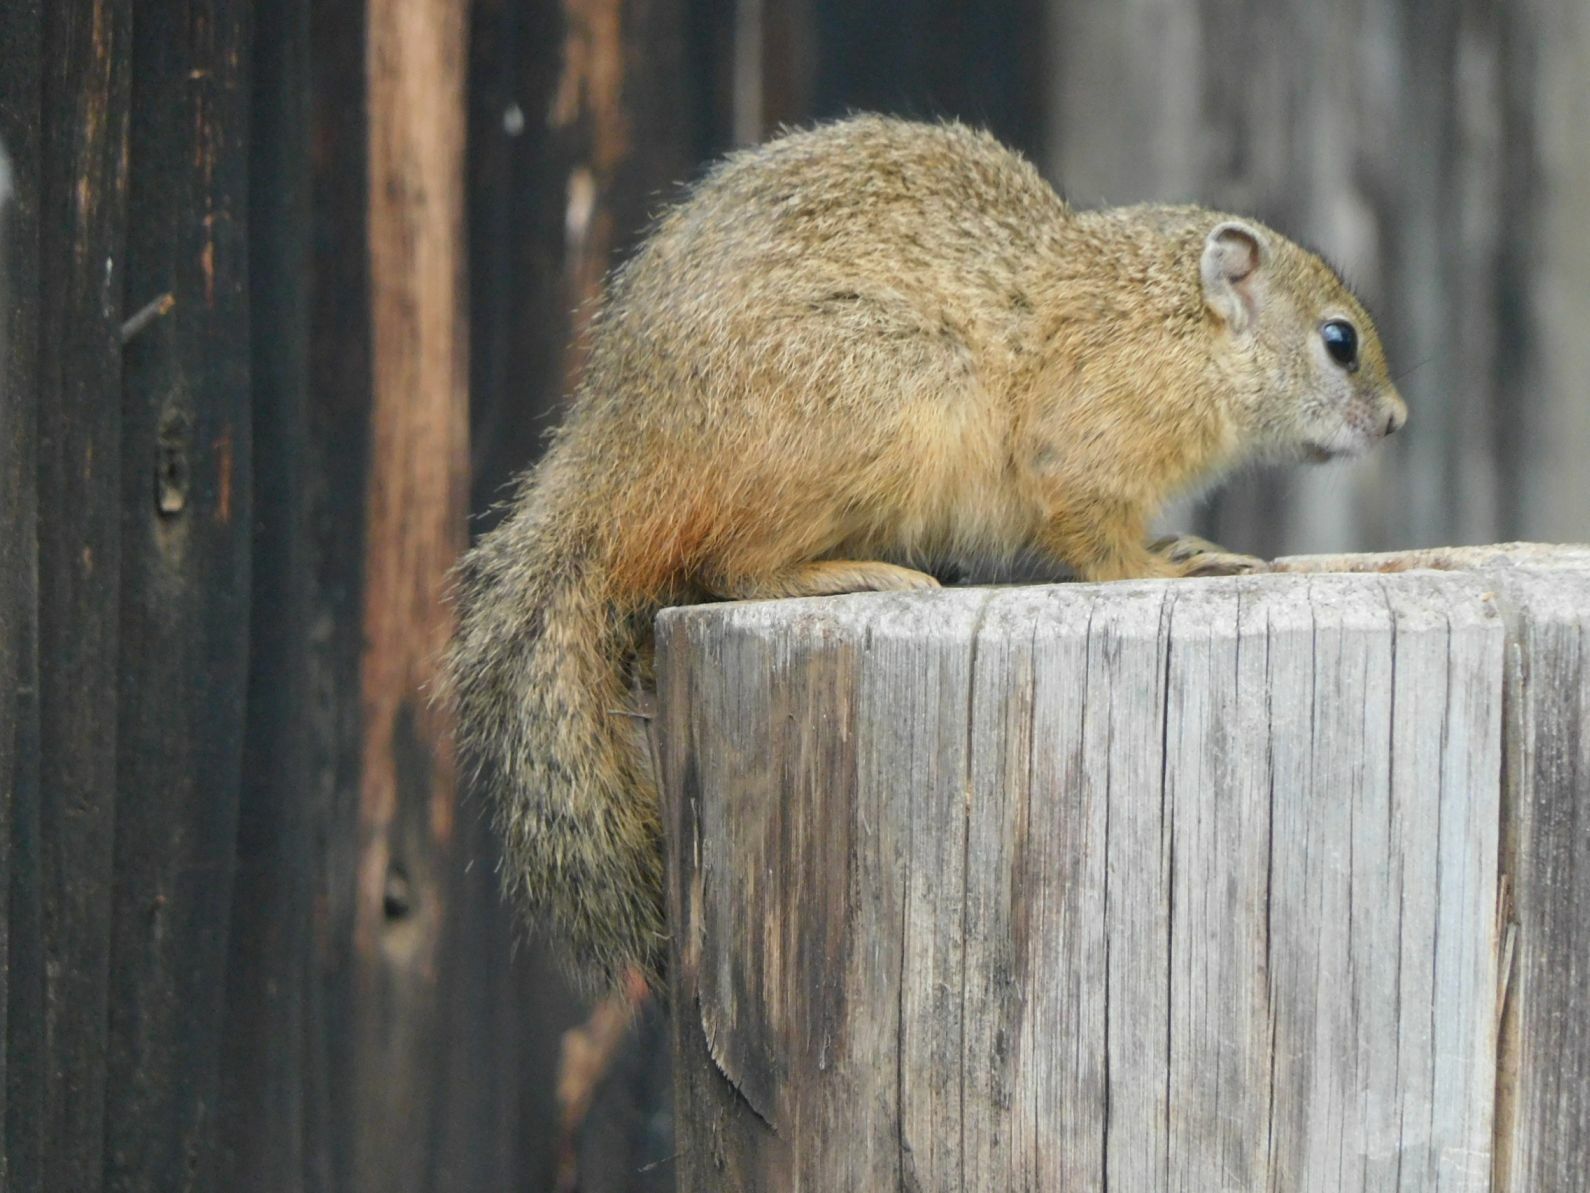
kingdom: Animalia
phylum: Chordata
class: Mammalia
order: Rodentia
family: Sciuridae
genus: Paraxerus
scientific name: Paraxerus cepapi
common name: Smith's bush squirrel
